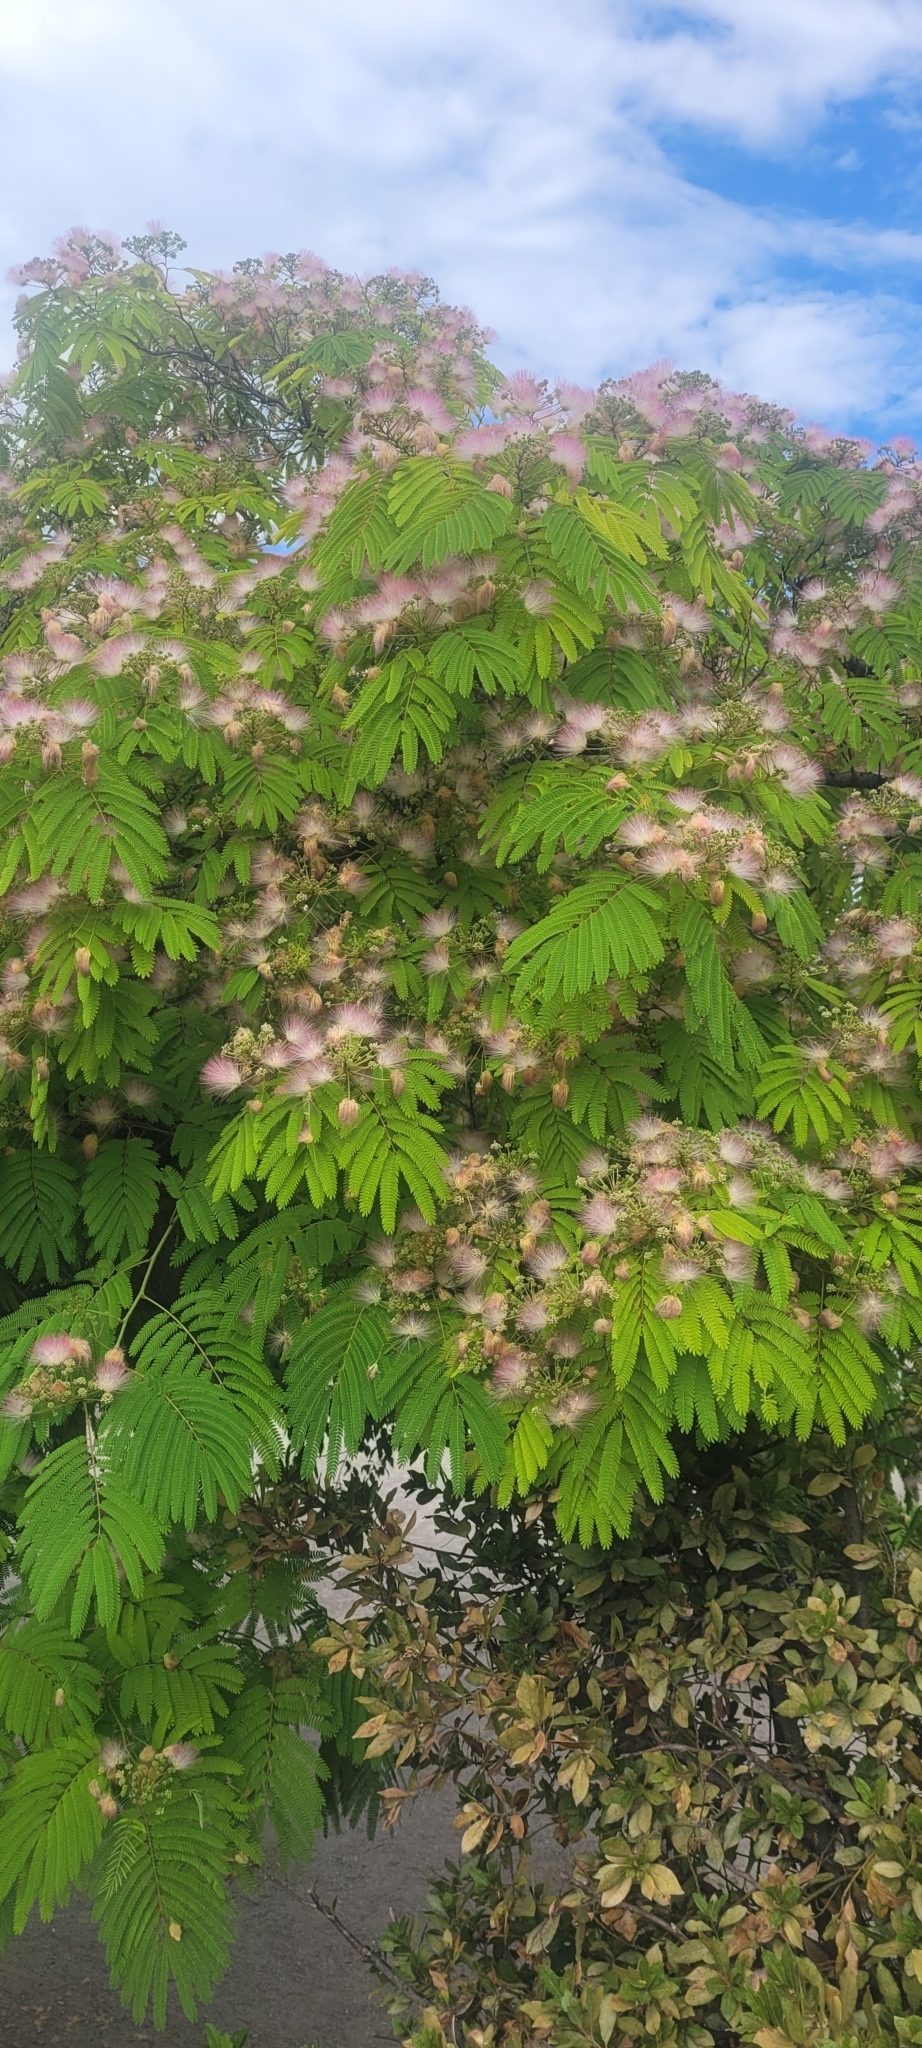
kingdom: Plantae
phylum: Tracheophyta
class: Magnoliopsida
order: Fabales
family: Fabaceae
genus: Albizia
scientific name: Albizia julibrissin
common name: Silktree
